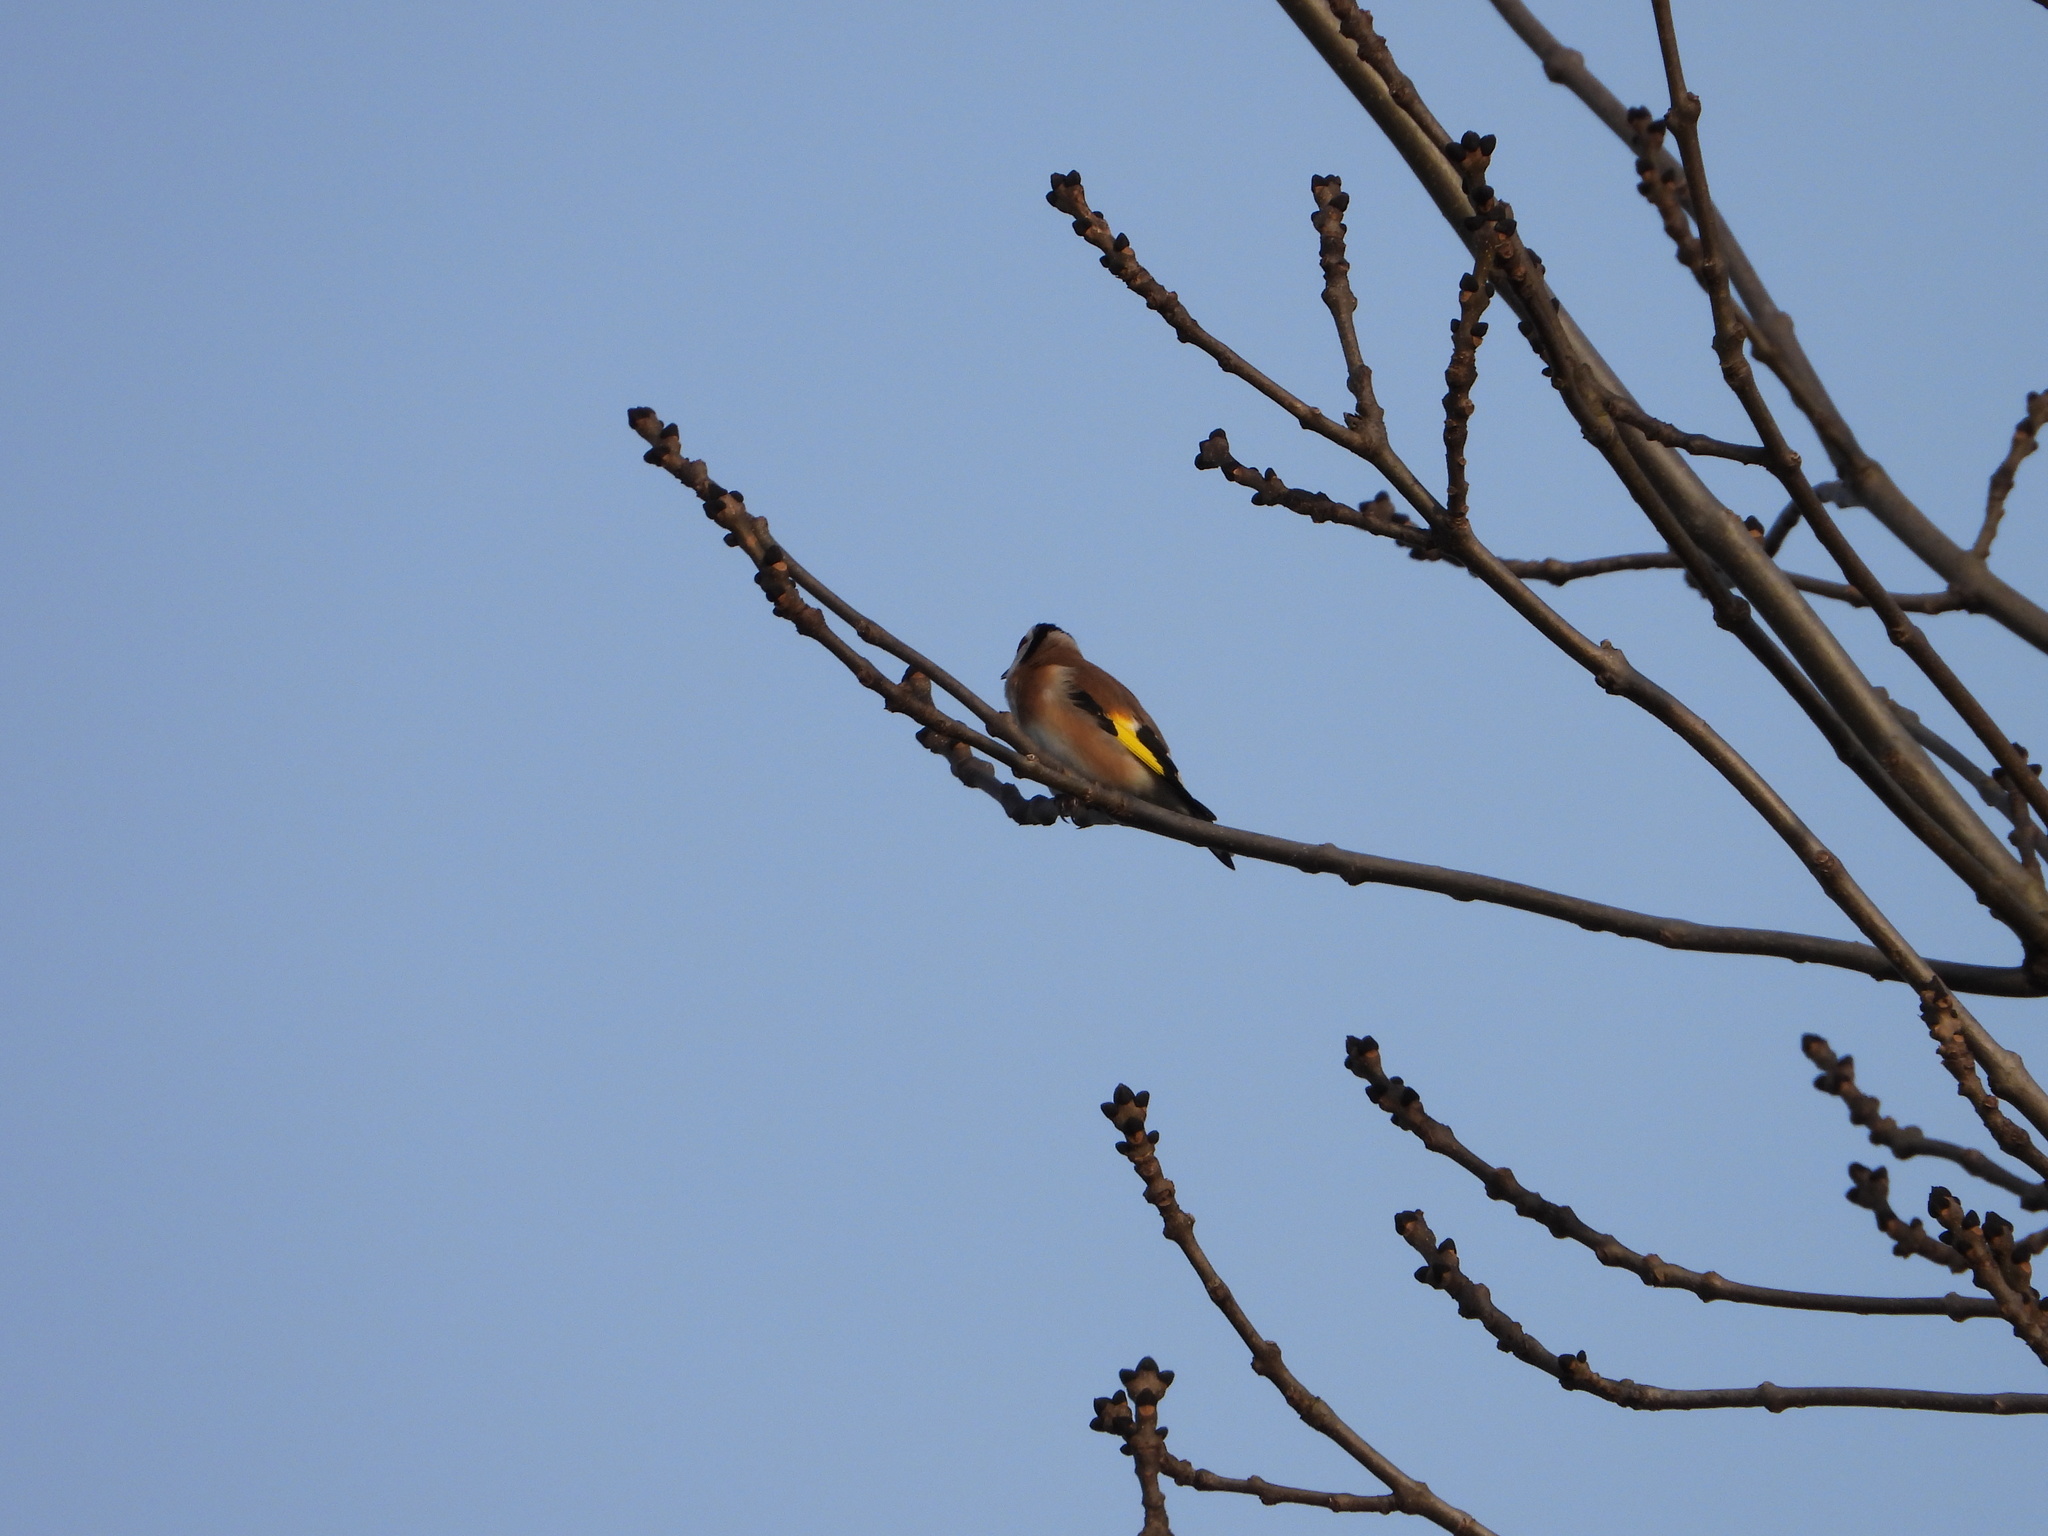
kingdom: Animalia
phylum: Chordata
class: Aves
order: Passeriformes
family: Fringillidae
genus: Carduelis
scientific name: Carduelis carduelis
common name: European goldfinch
